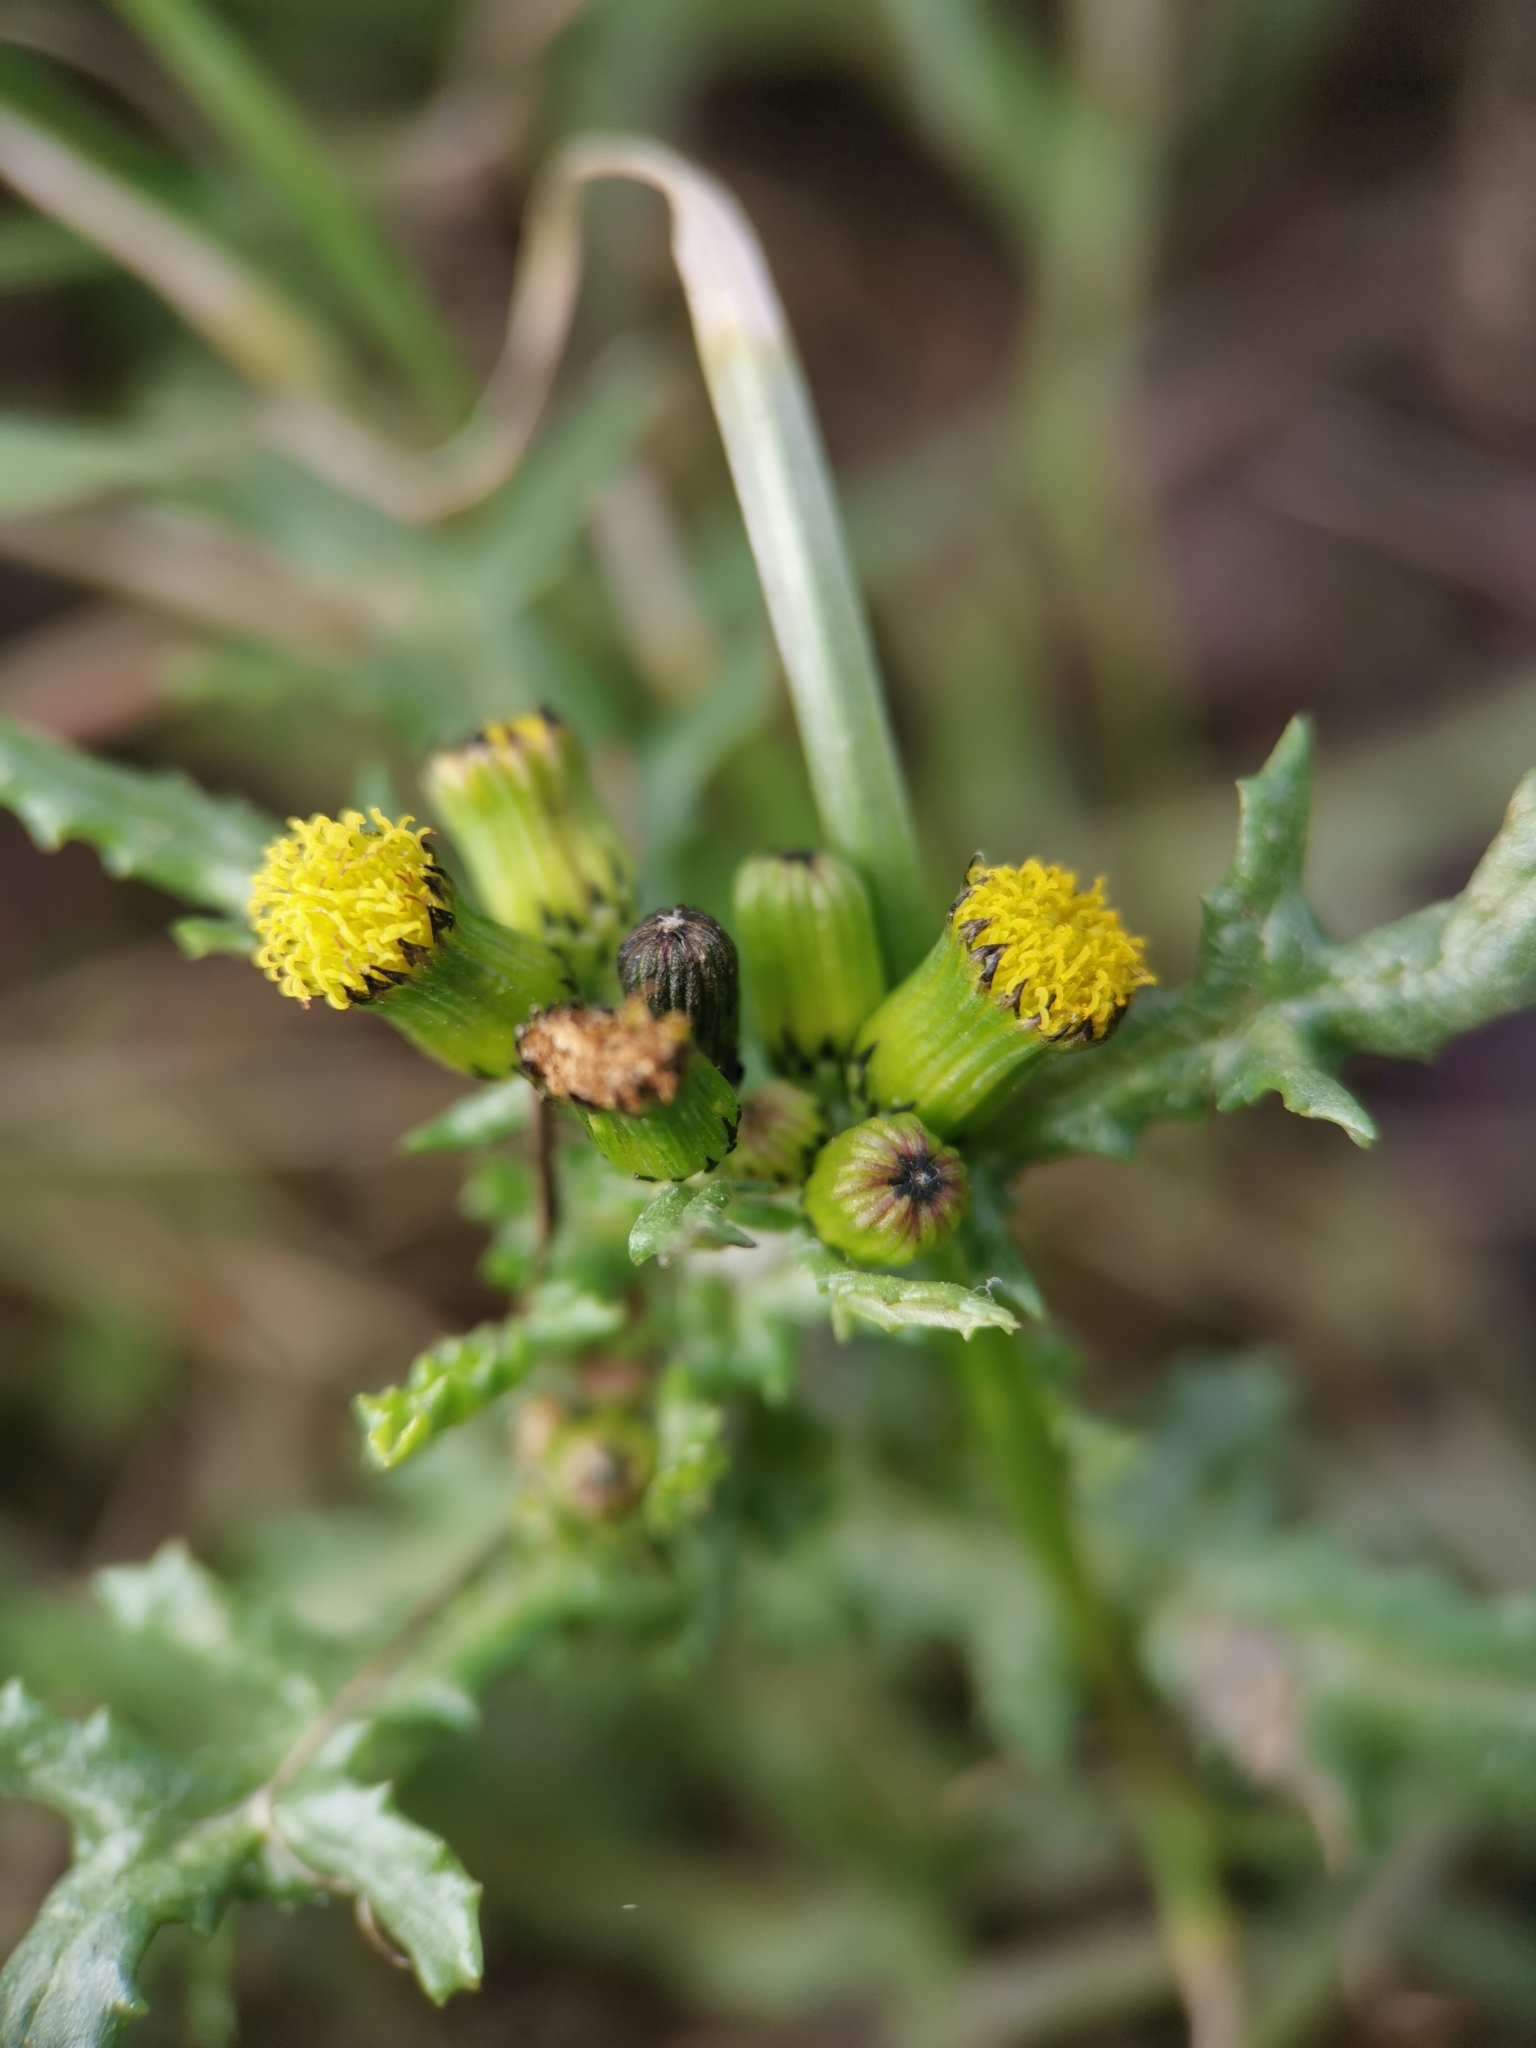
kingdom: Plantae
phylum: Tracheophyta
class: Magnoliopsida
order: Asterales
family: Asteraceae
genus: Senecio
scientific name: Senecio vulgaris
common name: Old-man-in-the-spring
